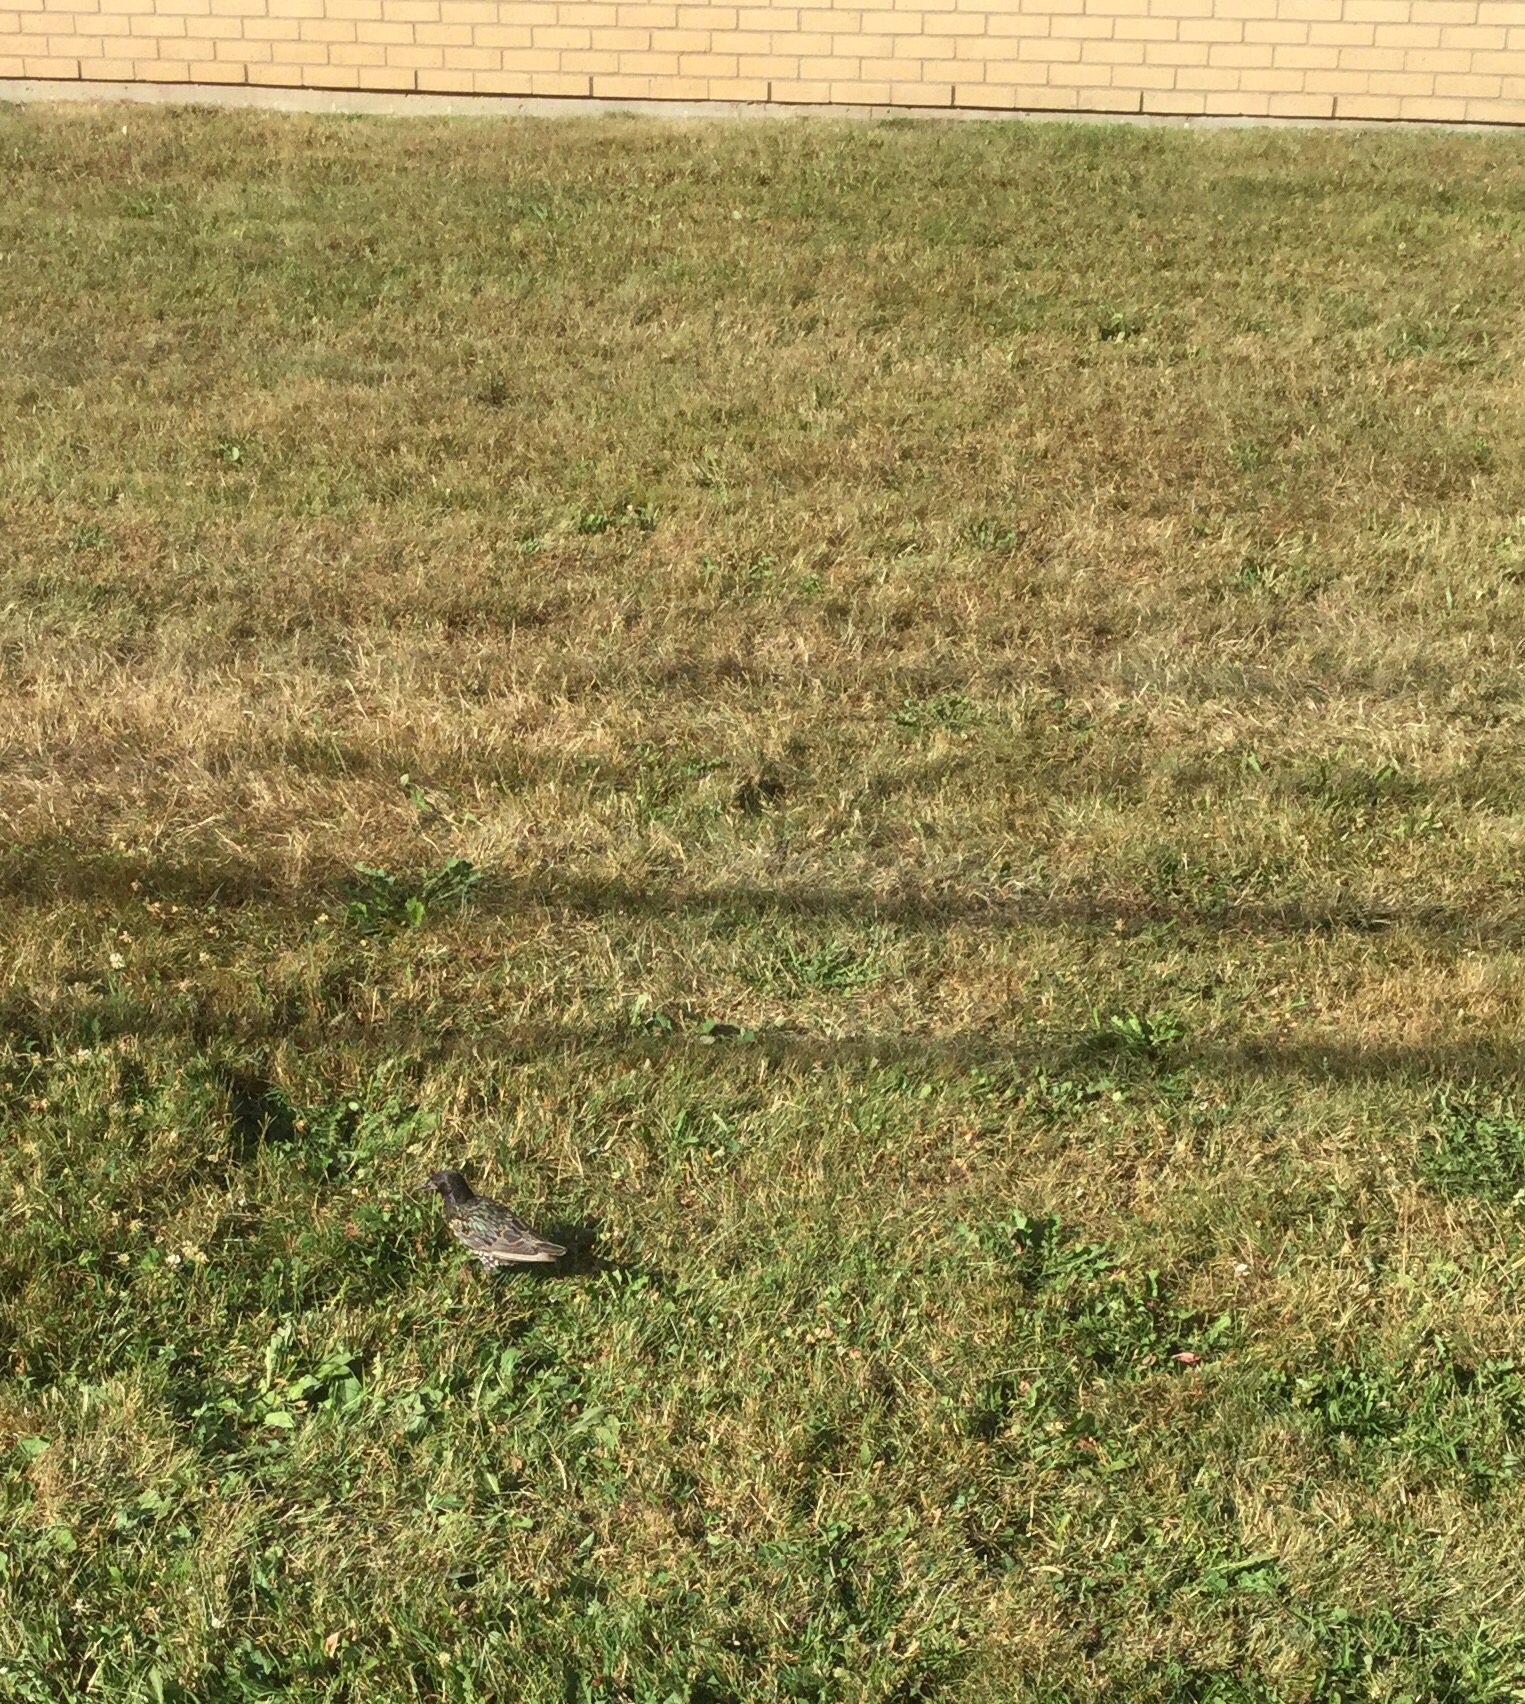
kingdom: Animalia
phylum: Chordata
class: Aves
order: Passeriformes
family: Sturnidae
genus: Sturnus
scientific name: Sturnus vulgaris
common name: Common starling
